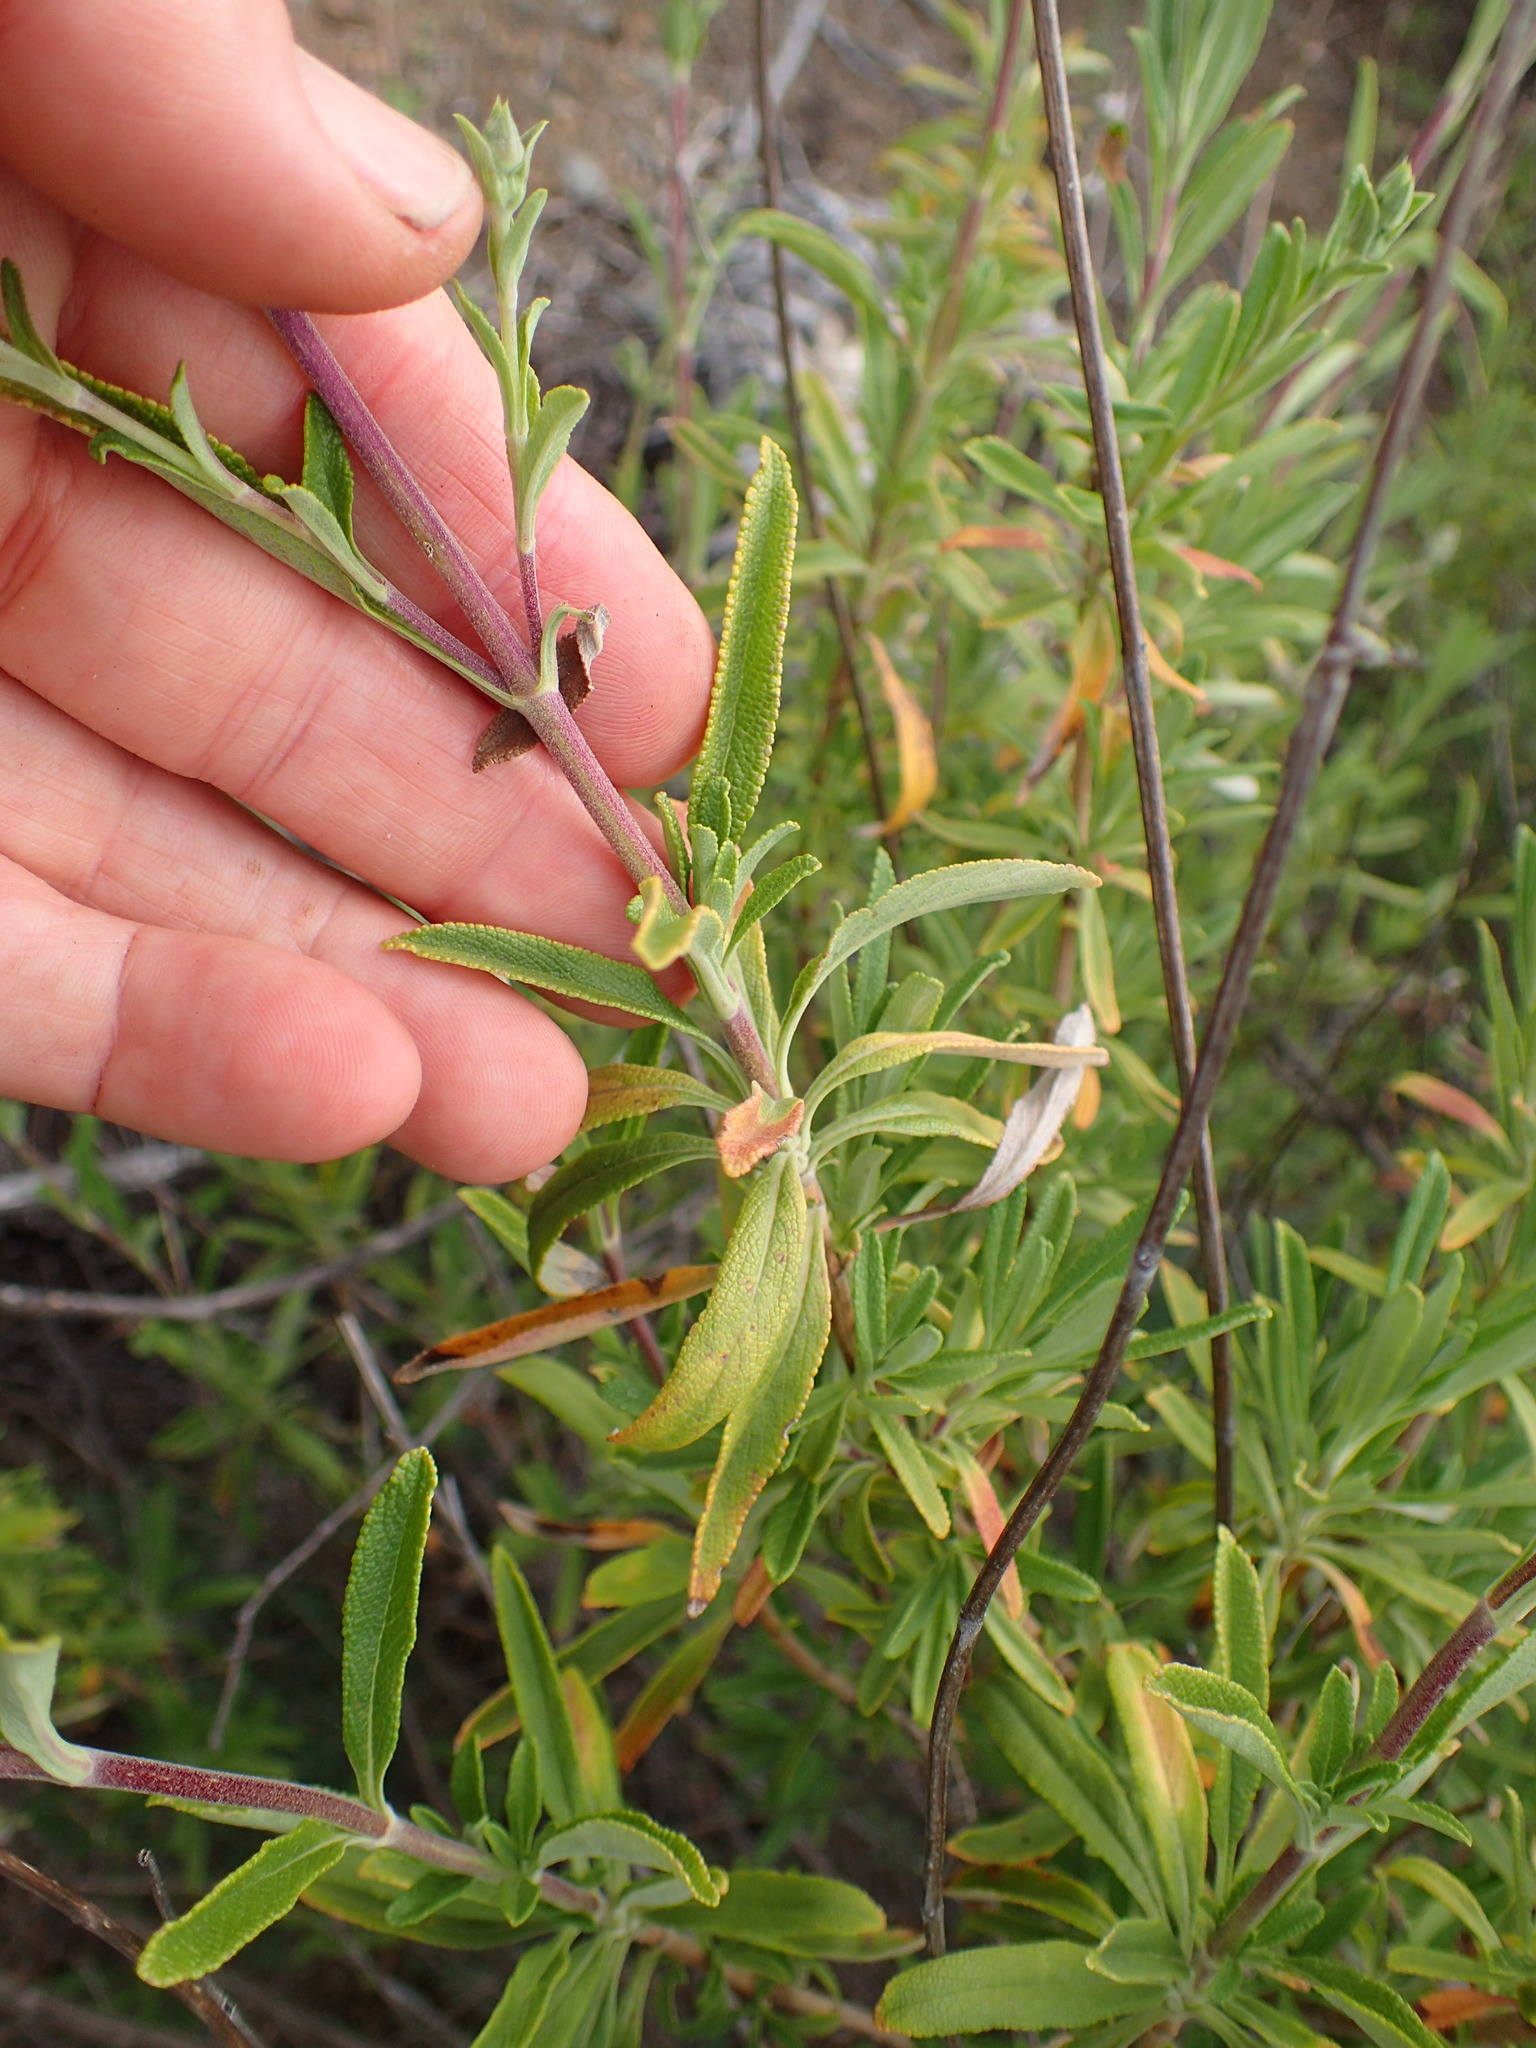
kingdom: Plantae
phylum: Tracheophyta
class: Magnoliopsida
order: Lamiales
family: Lamiaceae
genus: Salvia
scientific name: Salvia mellifera
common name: Black sage
